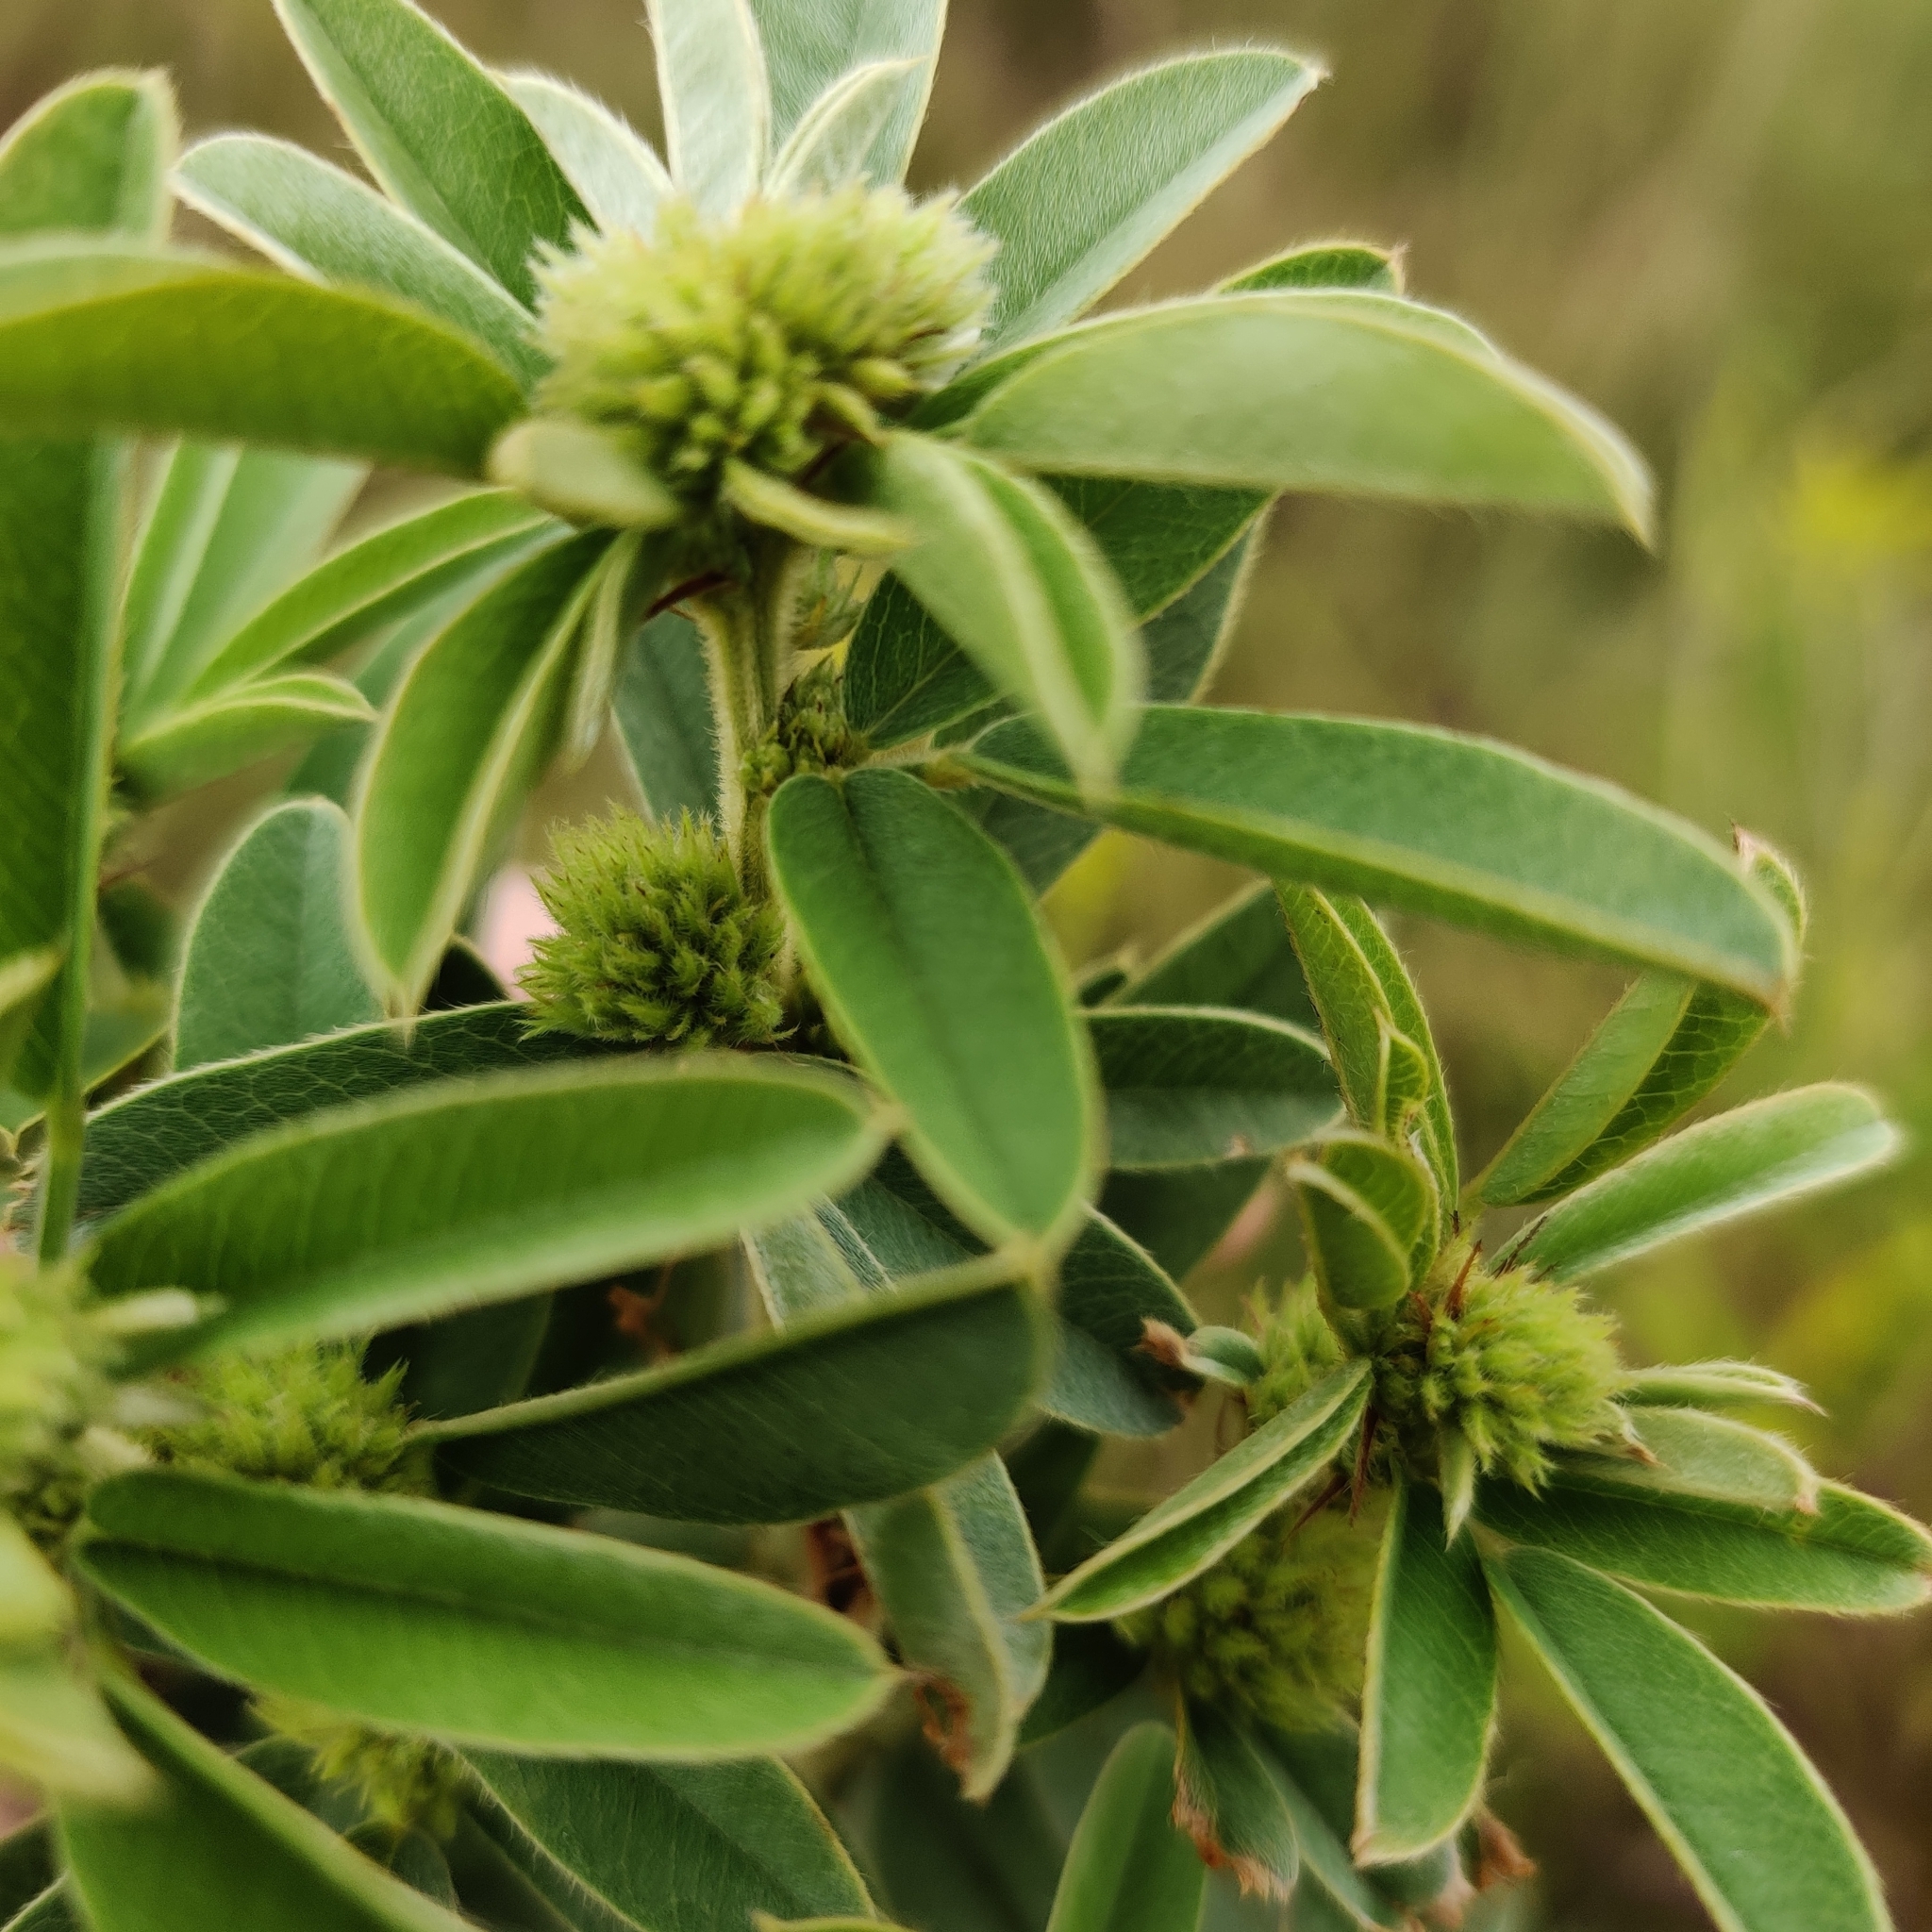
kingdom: Plantae
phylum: Tracheophyta
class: Magnoliopsida
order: Fabales
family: Fabaceae
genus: Lespedeza
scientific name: Lespedeza capitata
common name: Dusty clover
